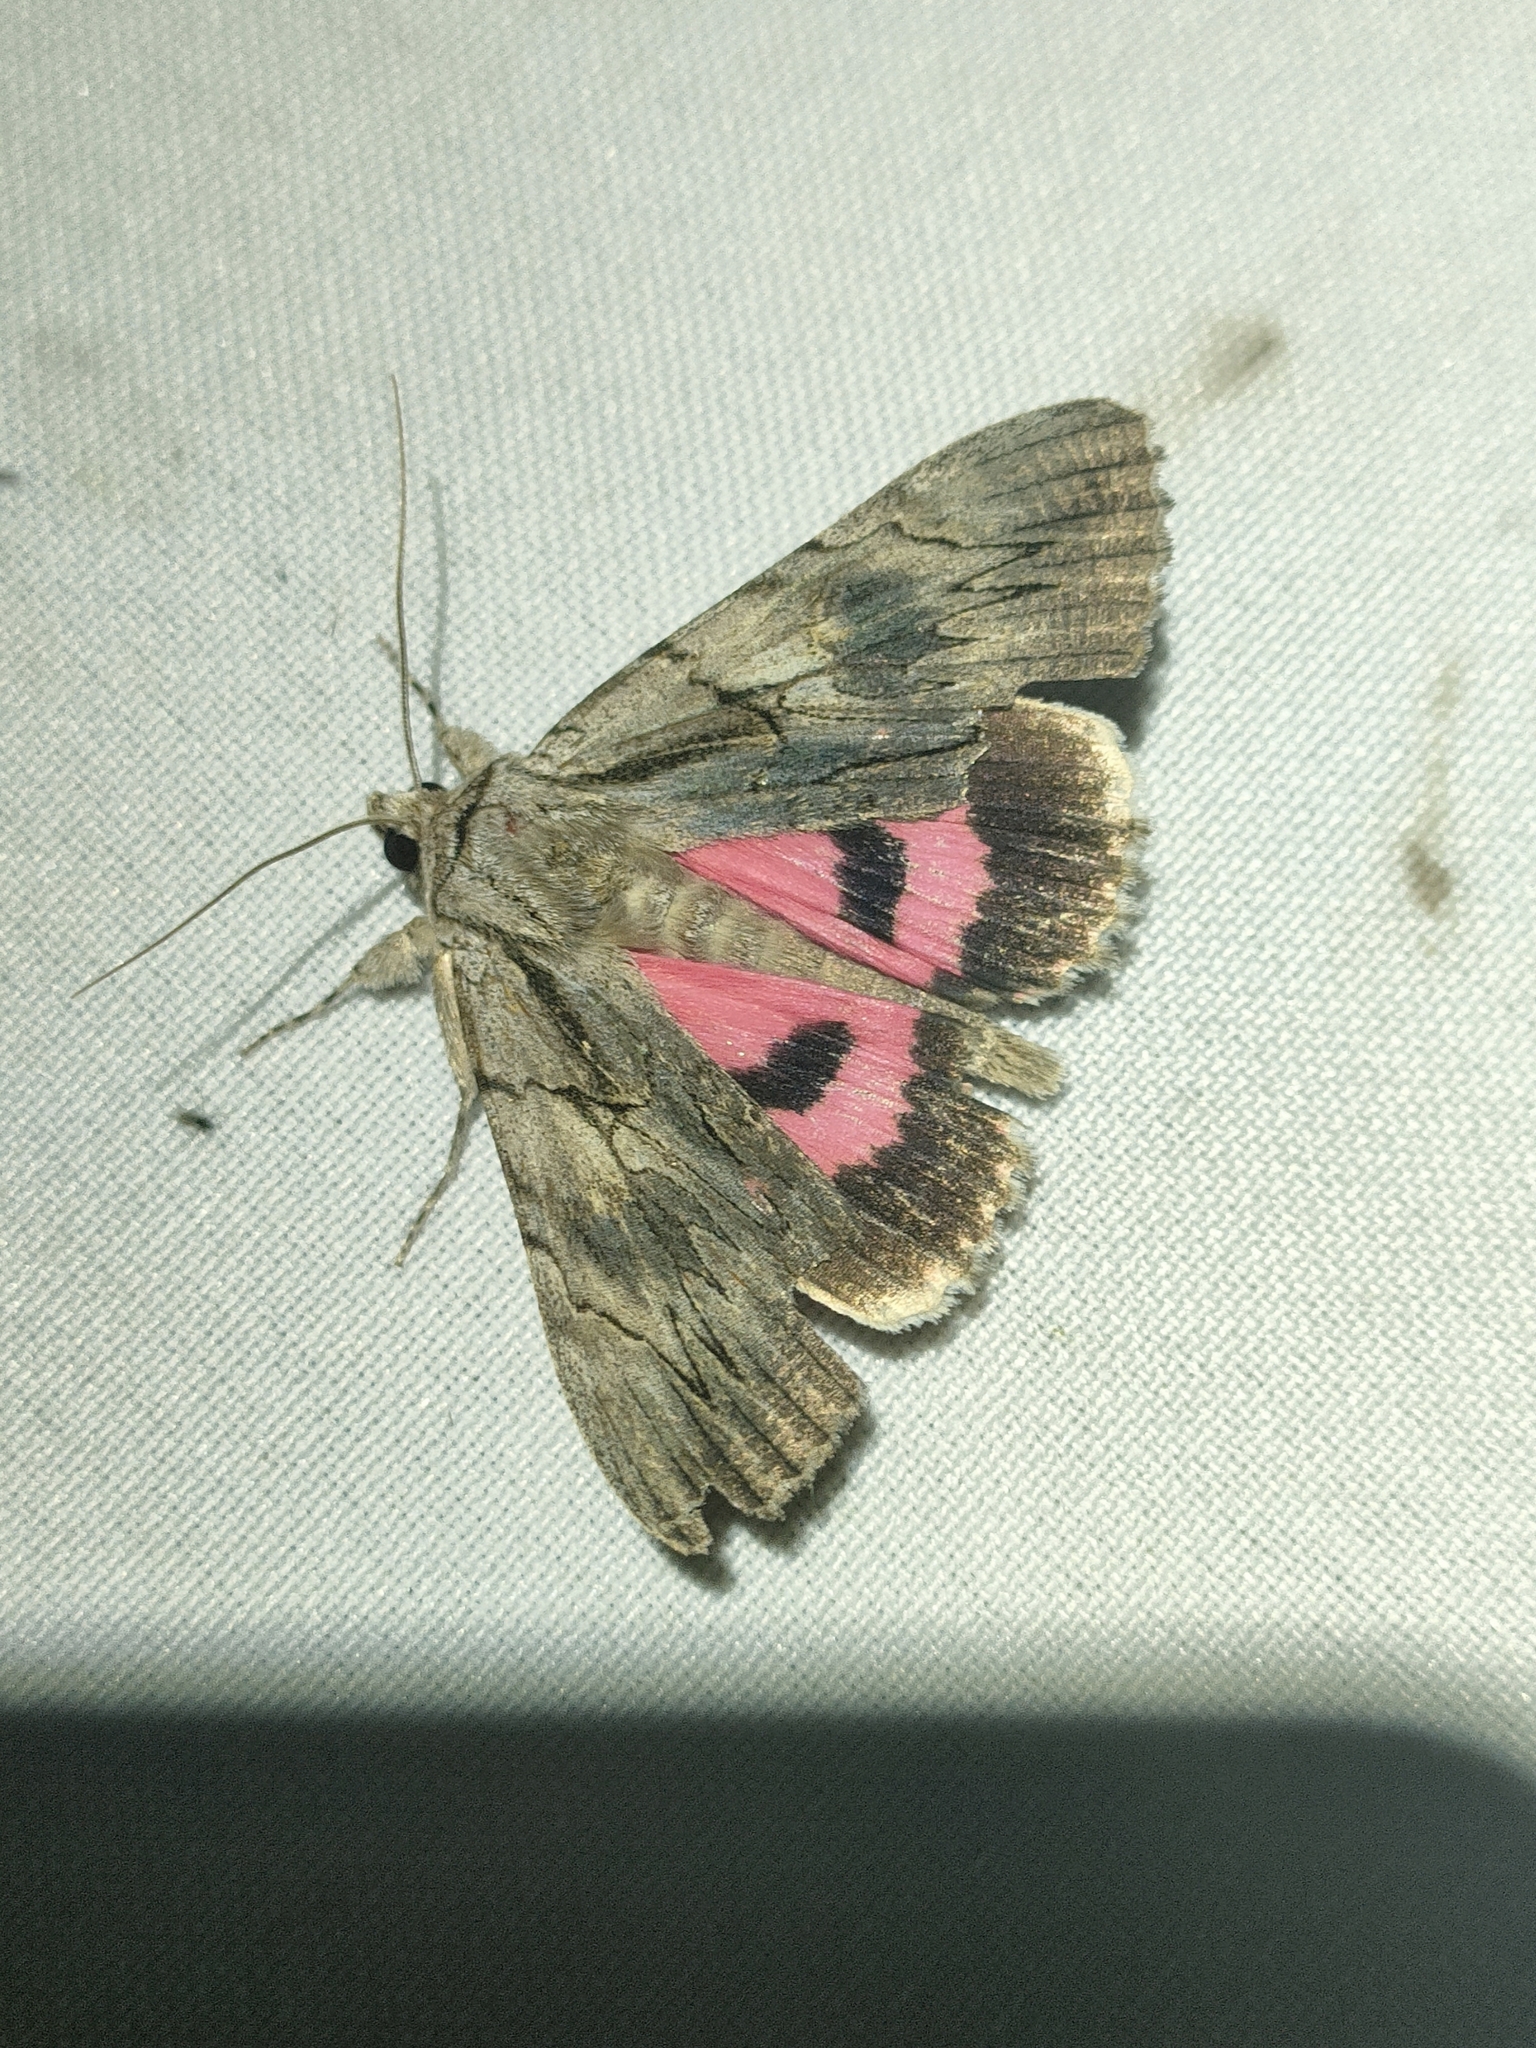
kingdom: Animalia
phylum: Arthropoda
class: Insecta
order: Lepidoptera
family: Erebidae
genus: Catocala
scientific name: Catocala optata
